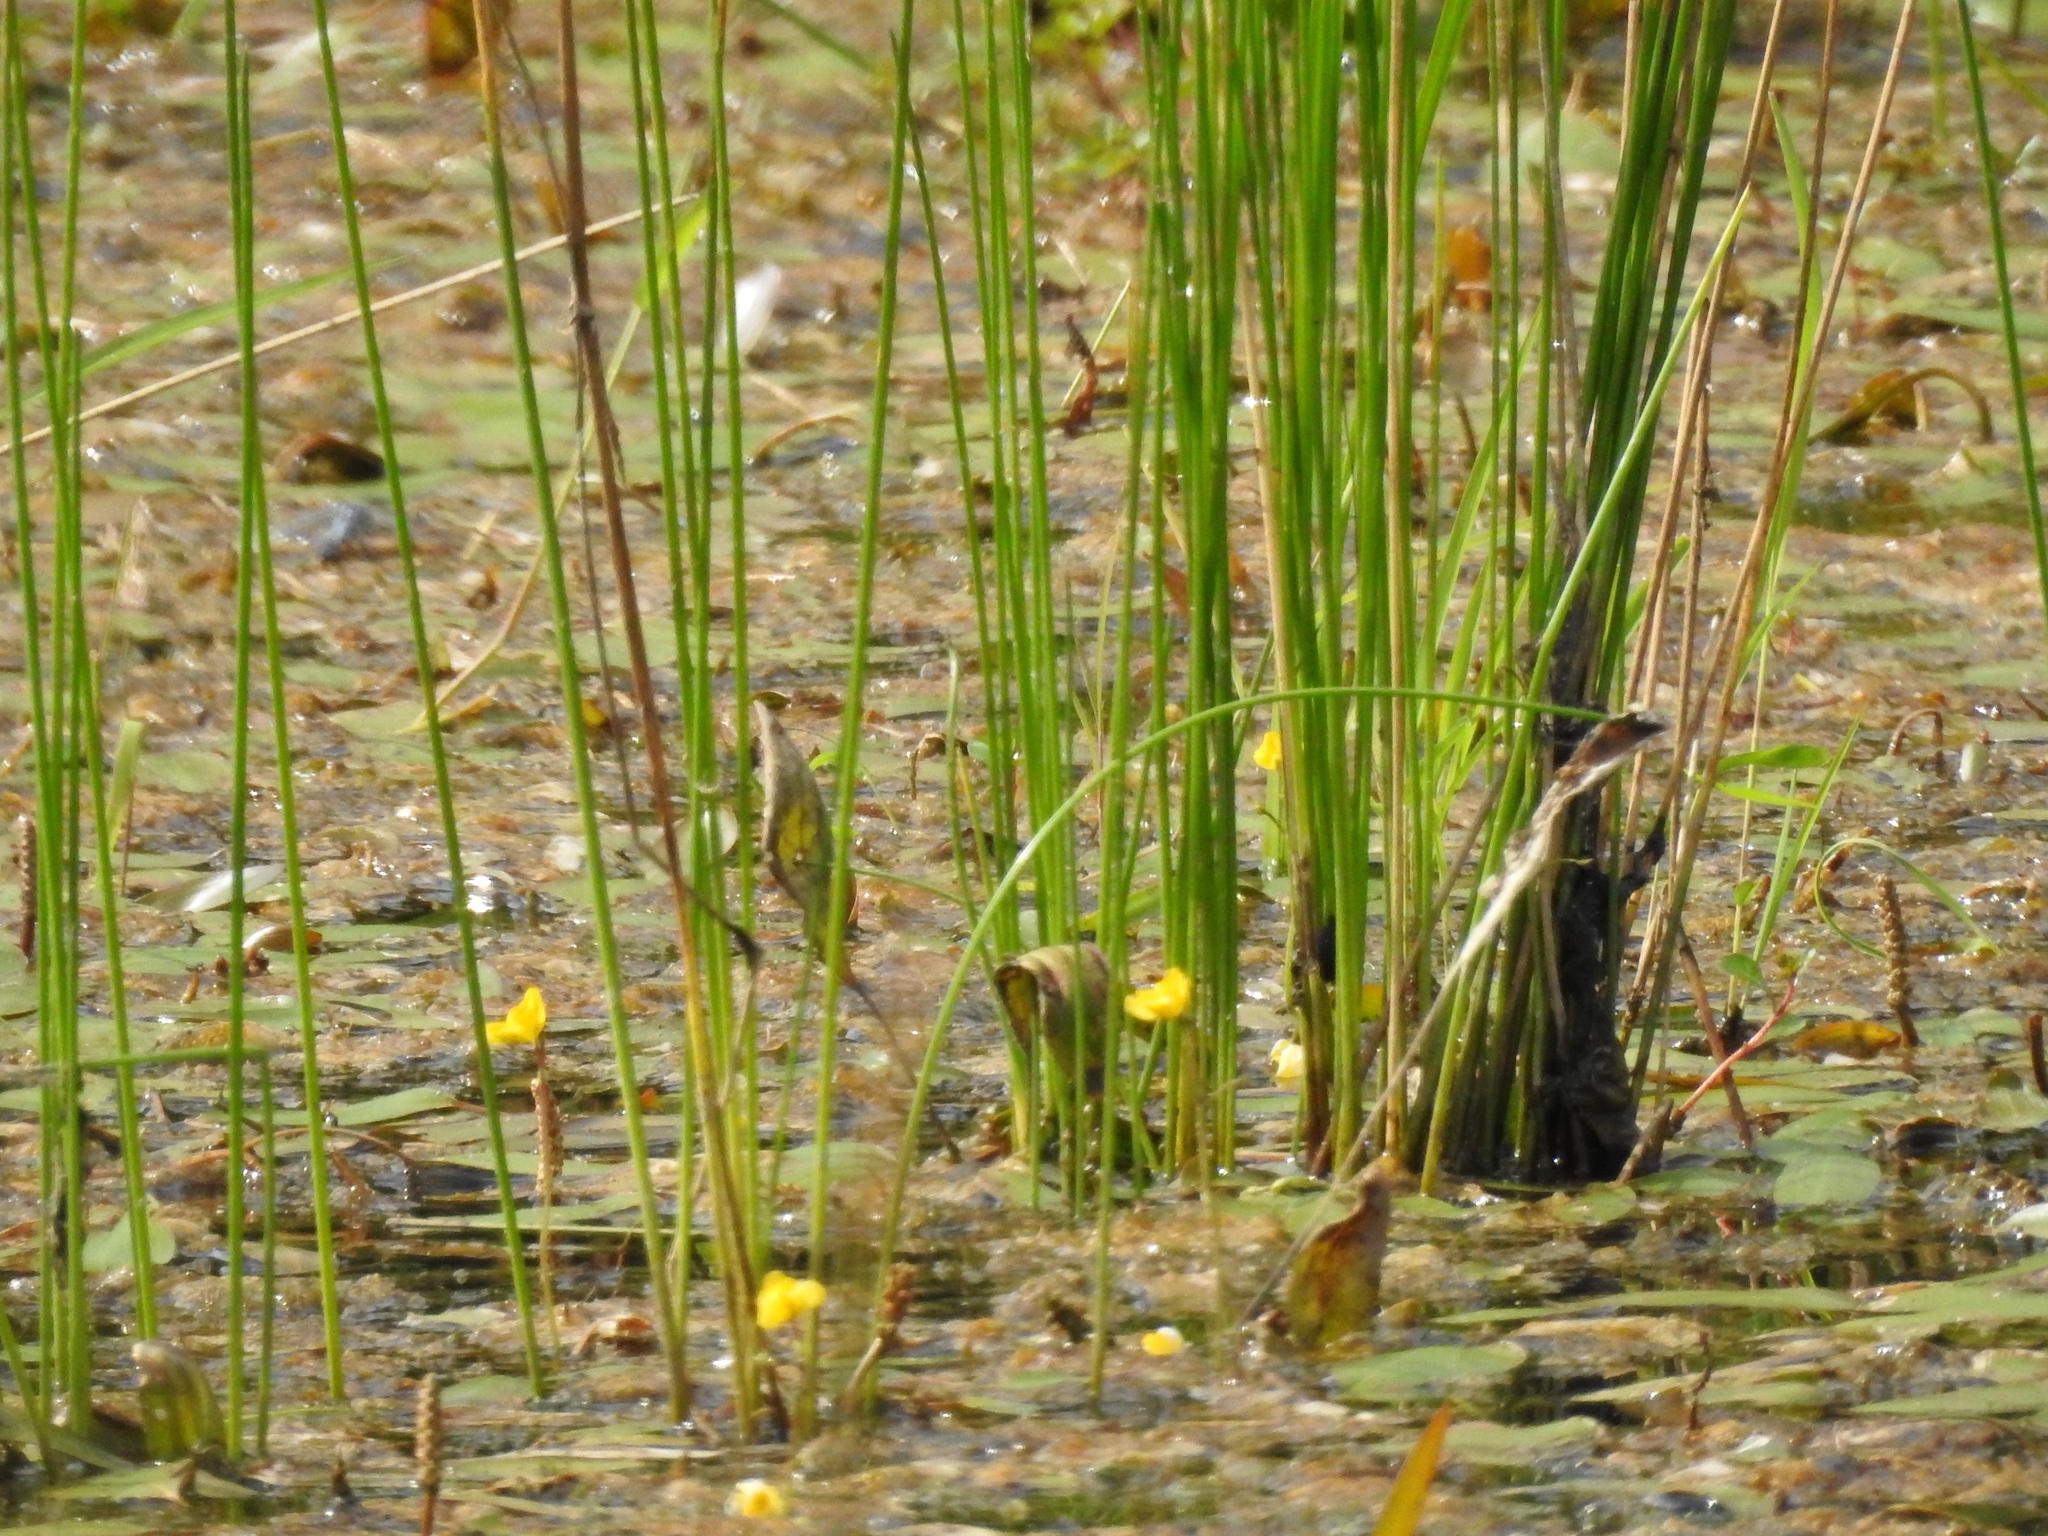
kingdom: Plantae
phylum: Tracheophyta
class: Magnoliopsida
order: Lamiales
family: Lentibulariaceae
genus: Utricularia
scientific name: Utricularia macrorhiza
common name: Common bladderwort
